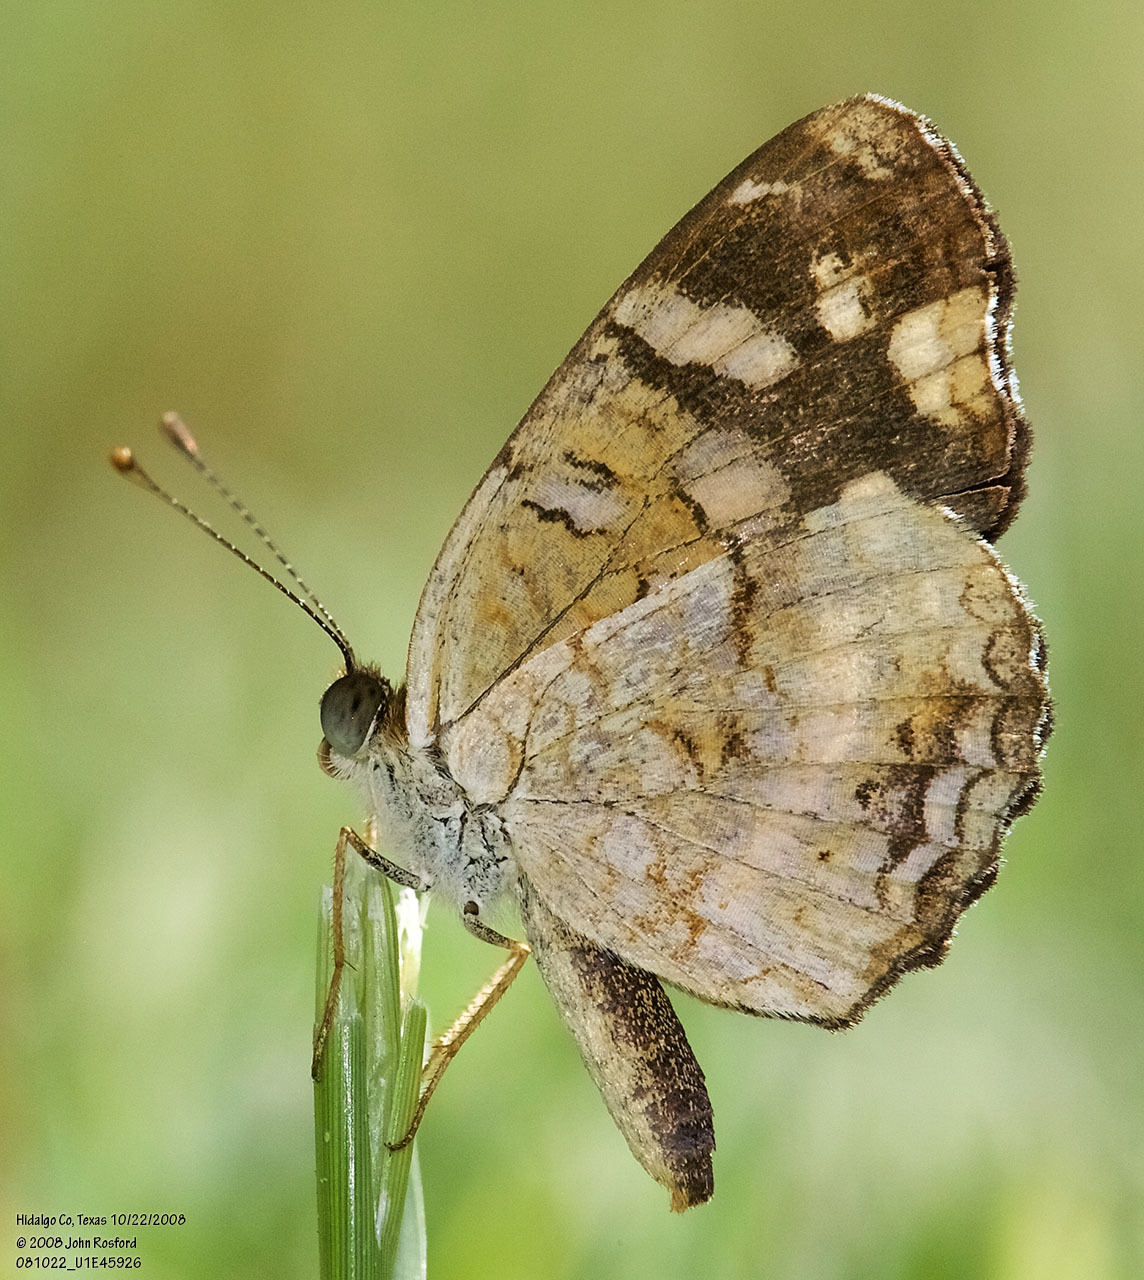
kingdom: Animalia
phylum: Arthropoda
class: Insecta
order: Lepidoptera
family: Nymphalidae
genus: Anthanassa
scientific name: Anthanassa tulcis
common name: Pale-banded crescent
